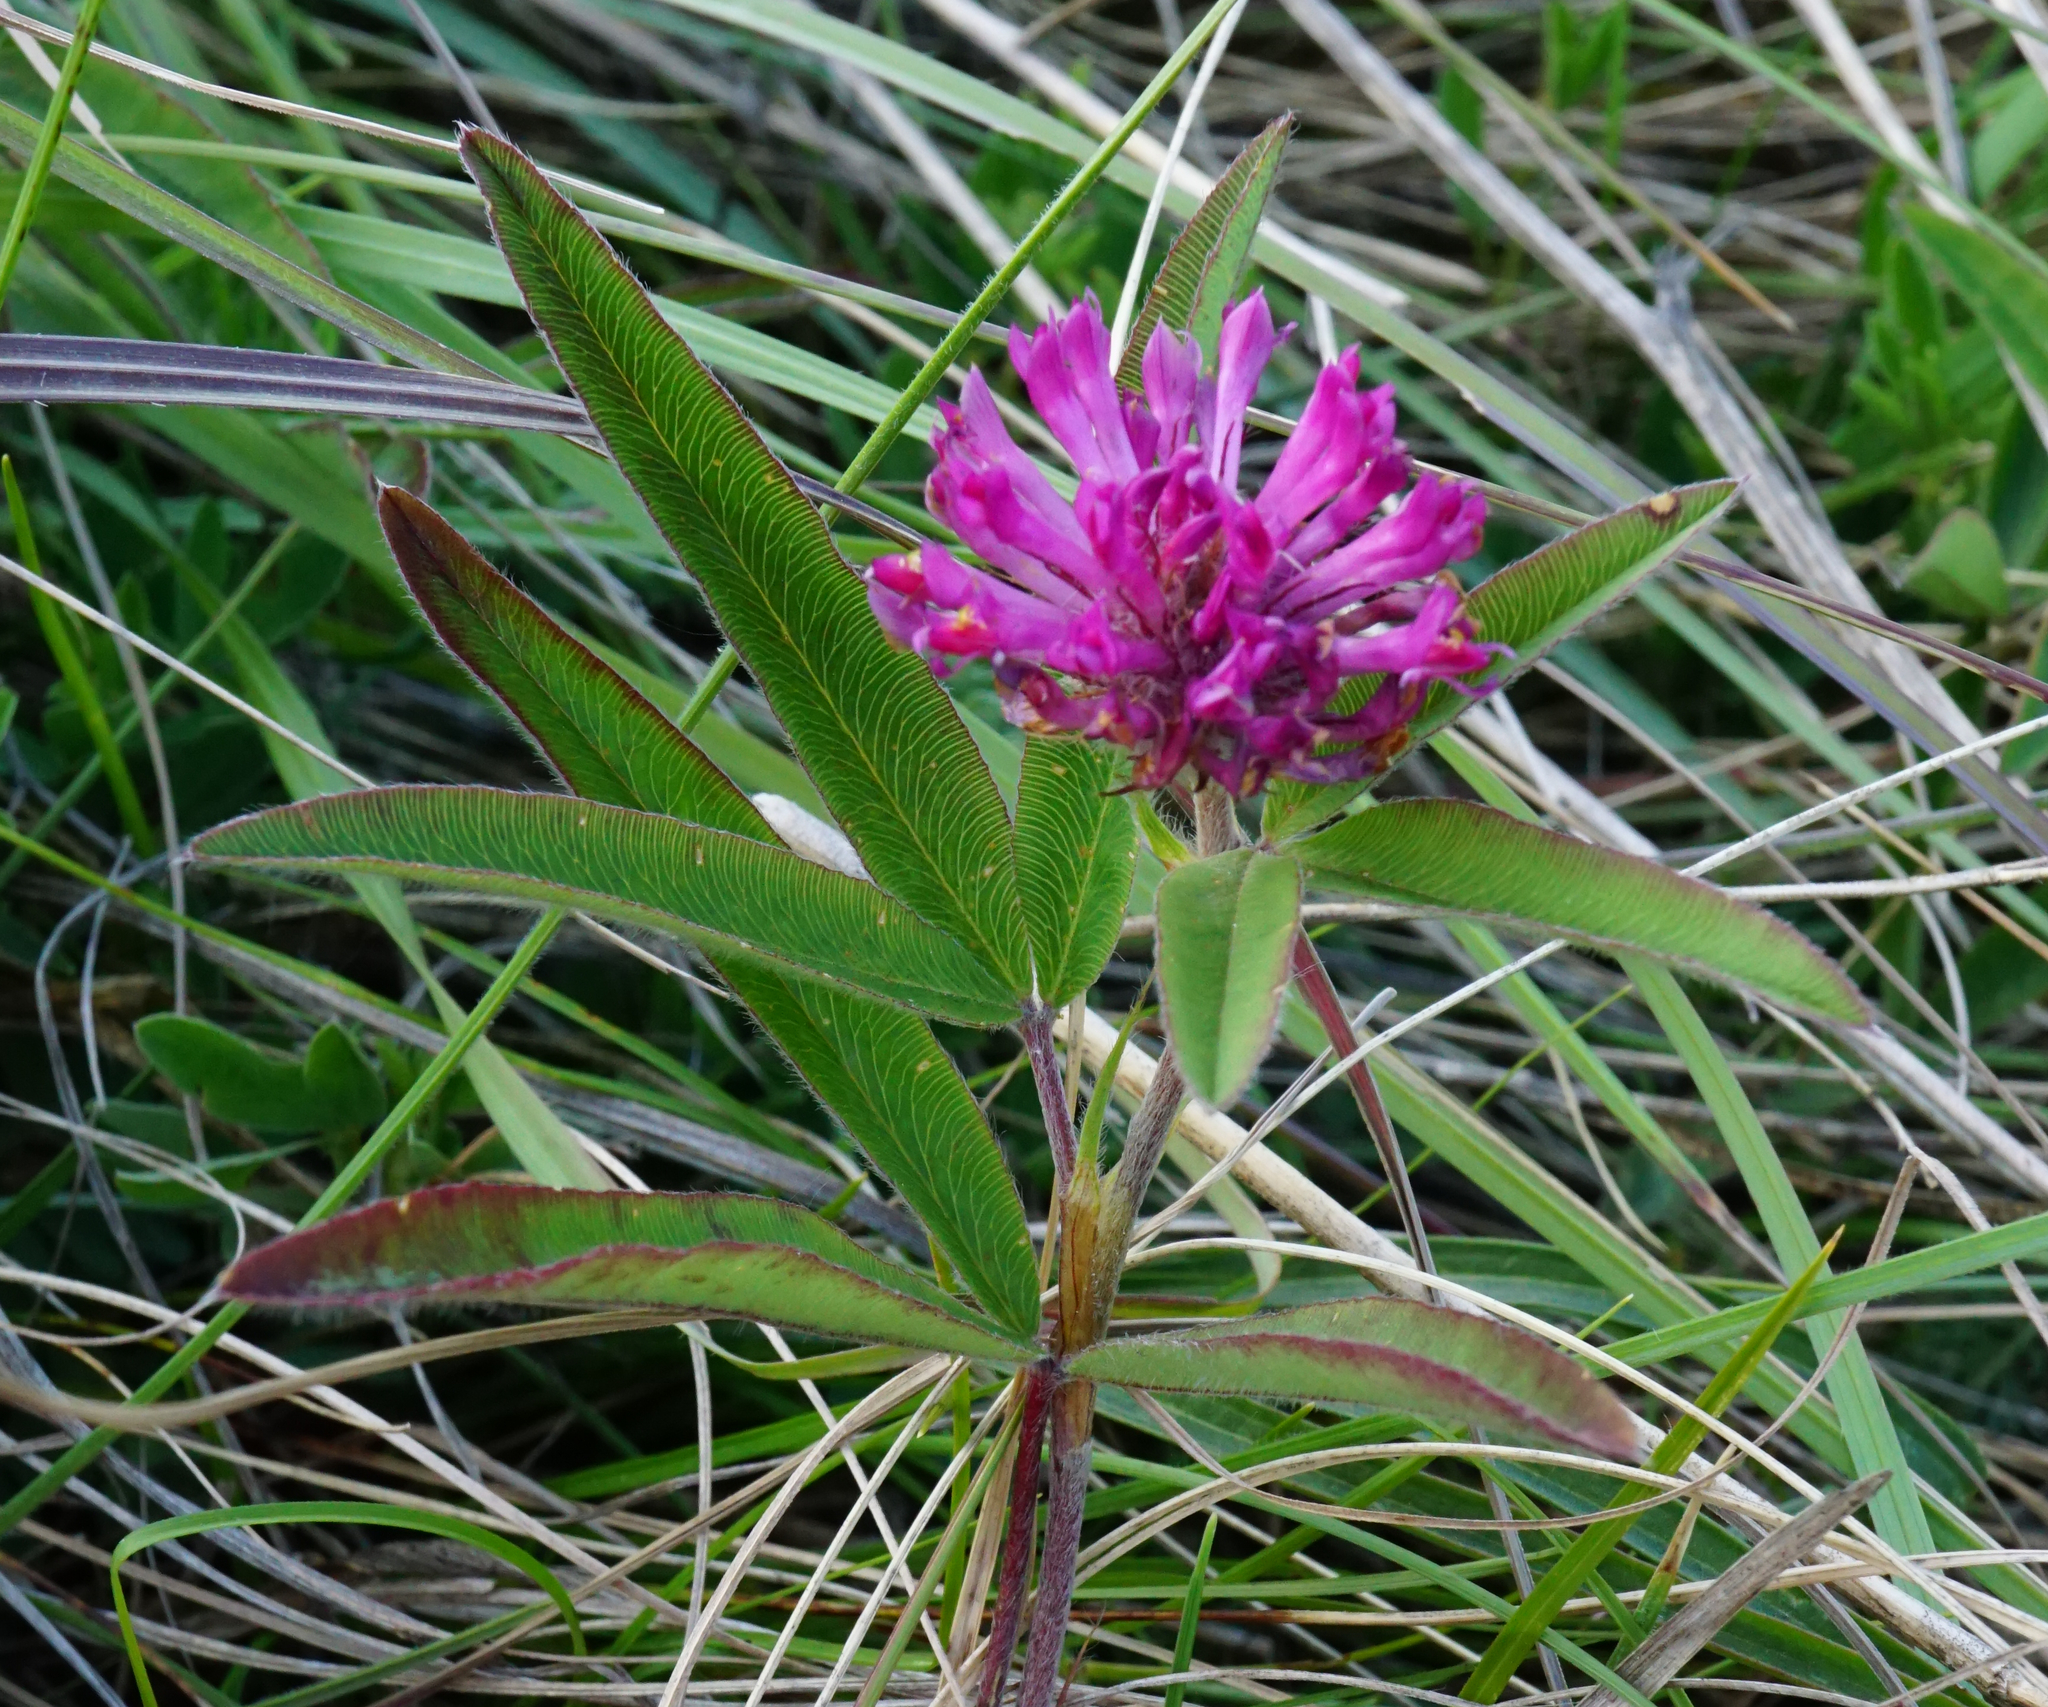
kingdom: Plantae
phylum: Tracheophyta
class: Magnoliopsida
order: Fabales
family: Fabaceae
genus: Trifolium
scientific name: Trifolium alpestre
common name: Owl-head clover
